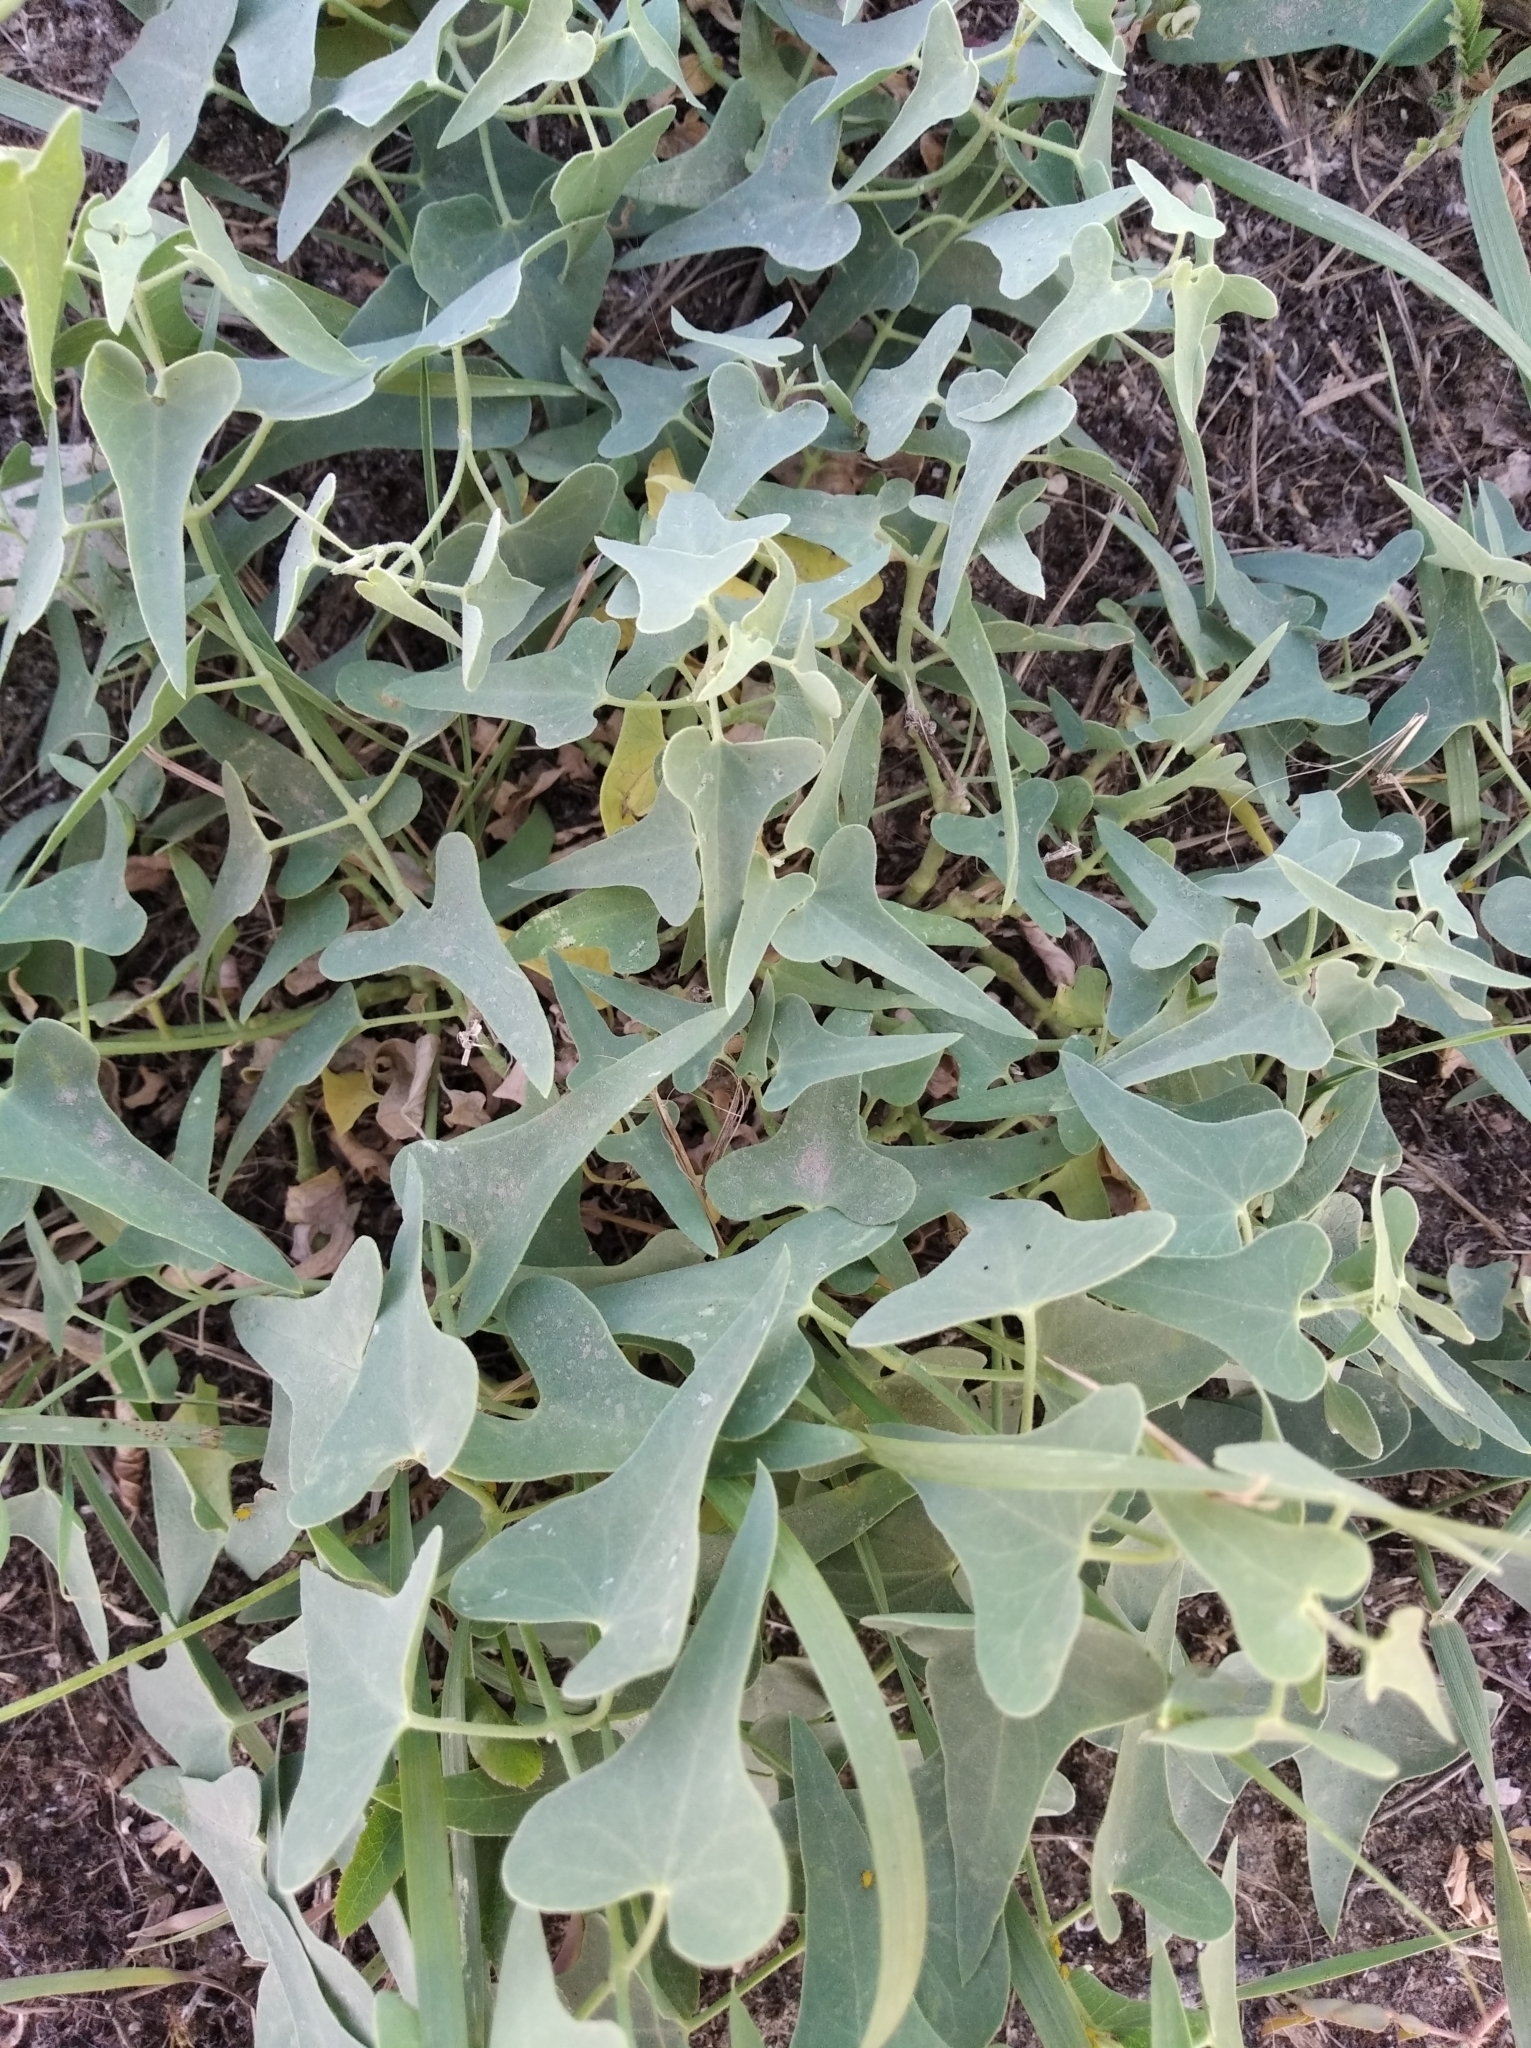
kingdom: Plantae
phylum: Tracheophyta
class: Magnoliopsida
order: Gentianales
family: Apocynaceae
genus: Cynanchum
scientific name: Cynanchum acutum
